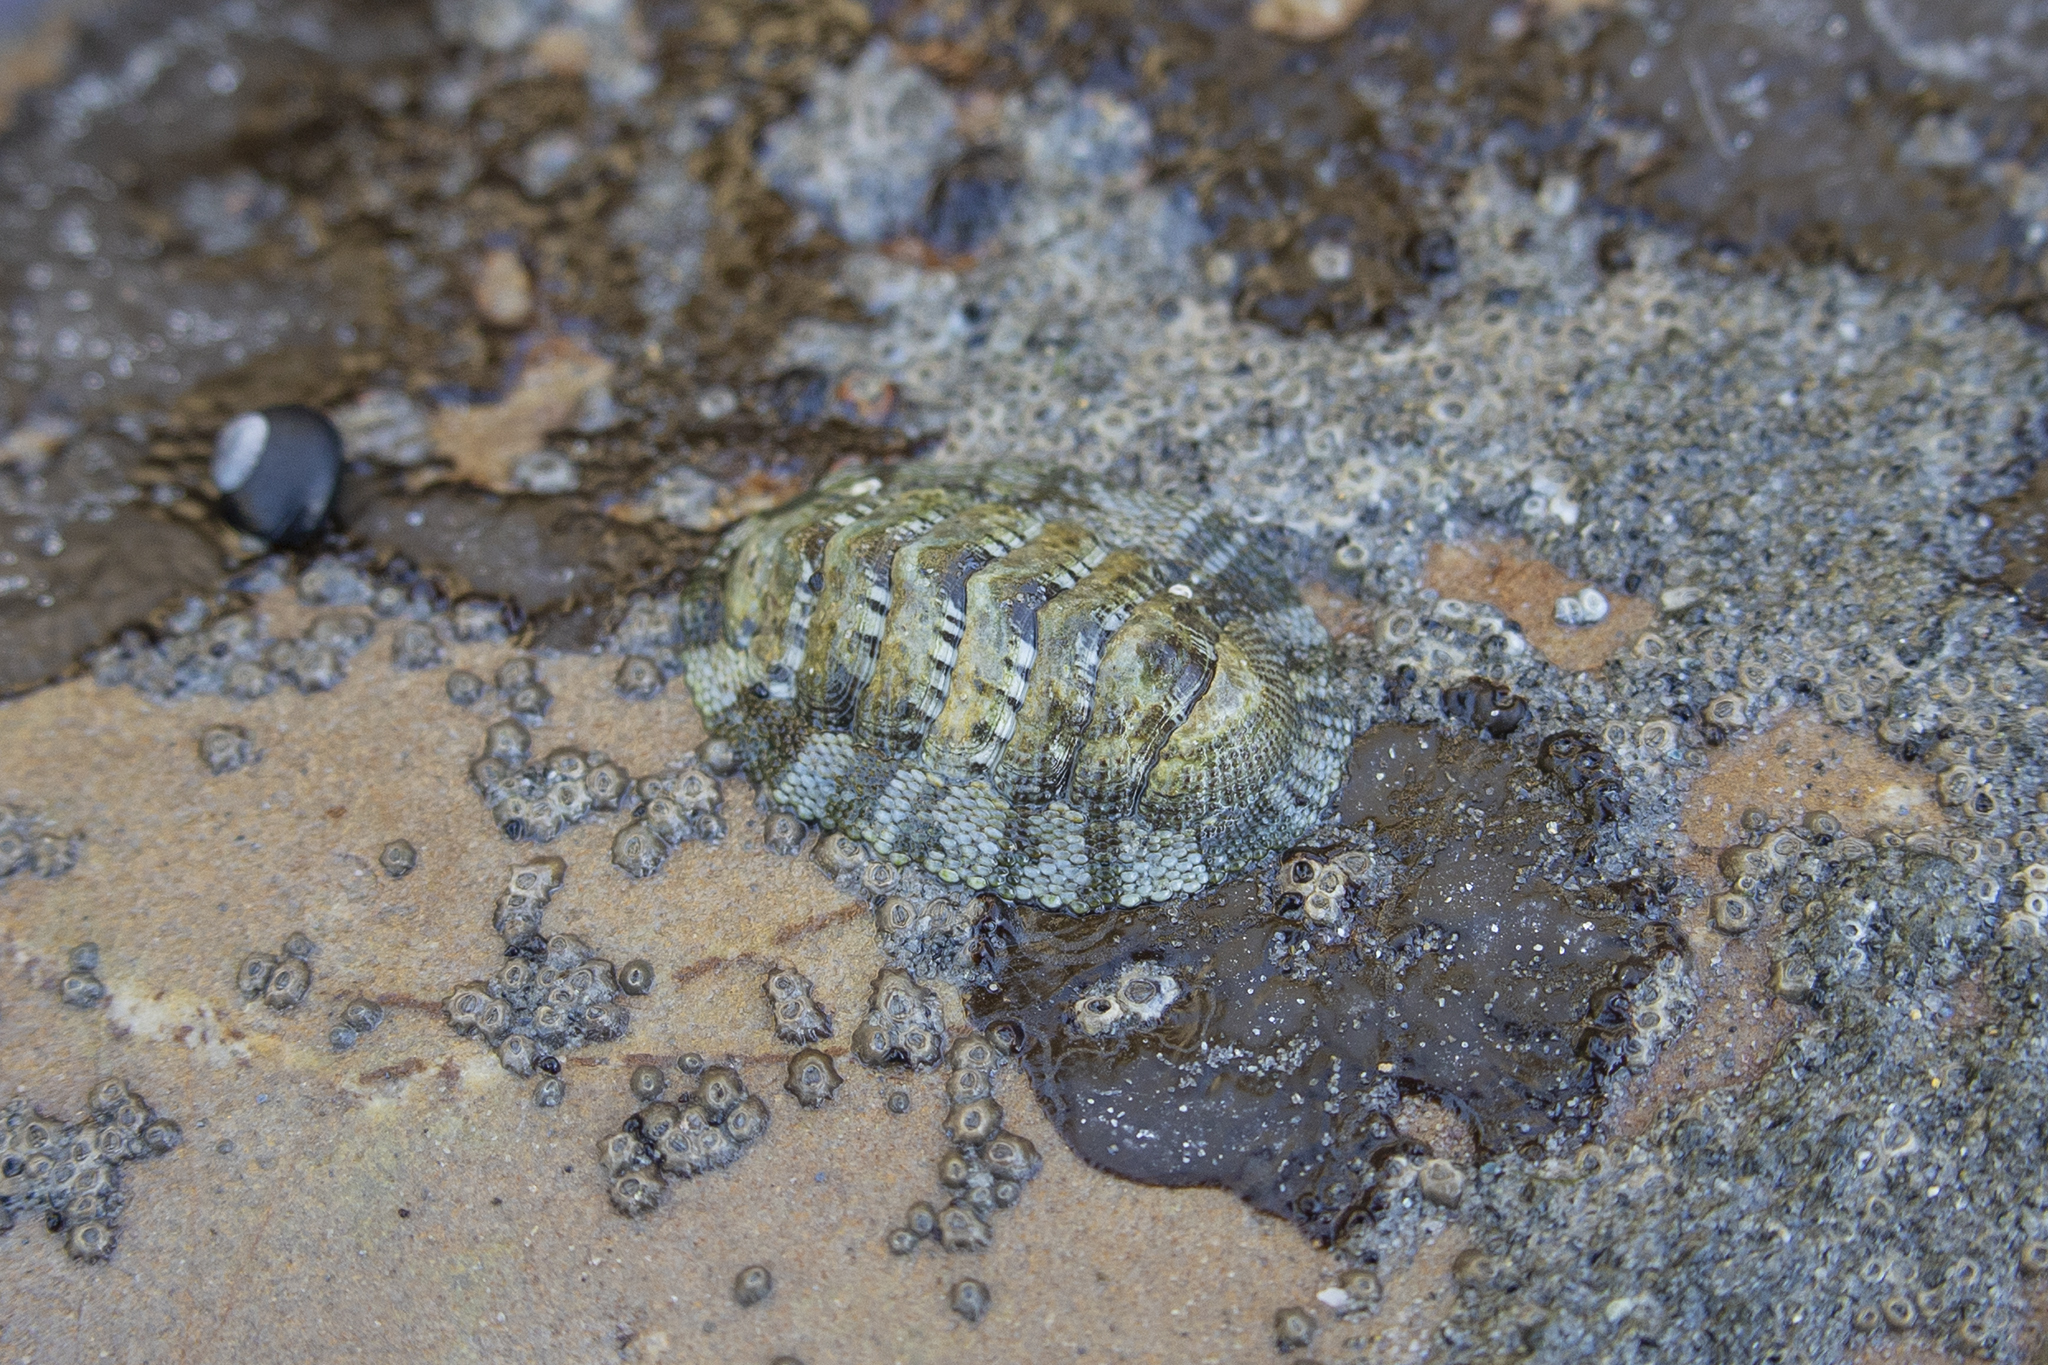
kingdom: Animalia
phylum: Mollusca
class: Polyplacophora
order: Chitonida
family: Chitonidae
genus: Sypharochiton
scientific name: Sypharochiton pelliserpentis
